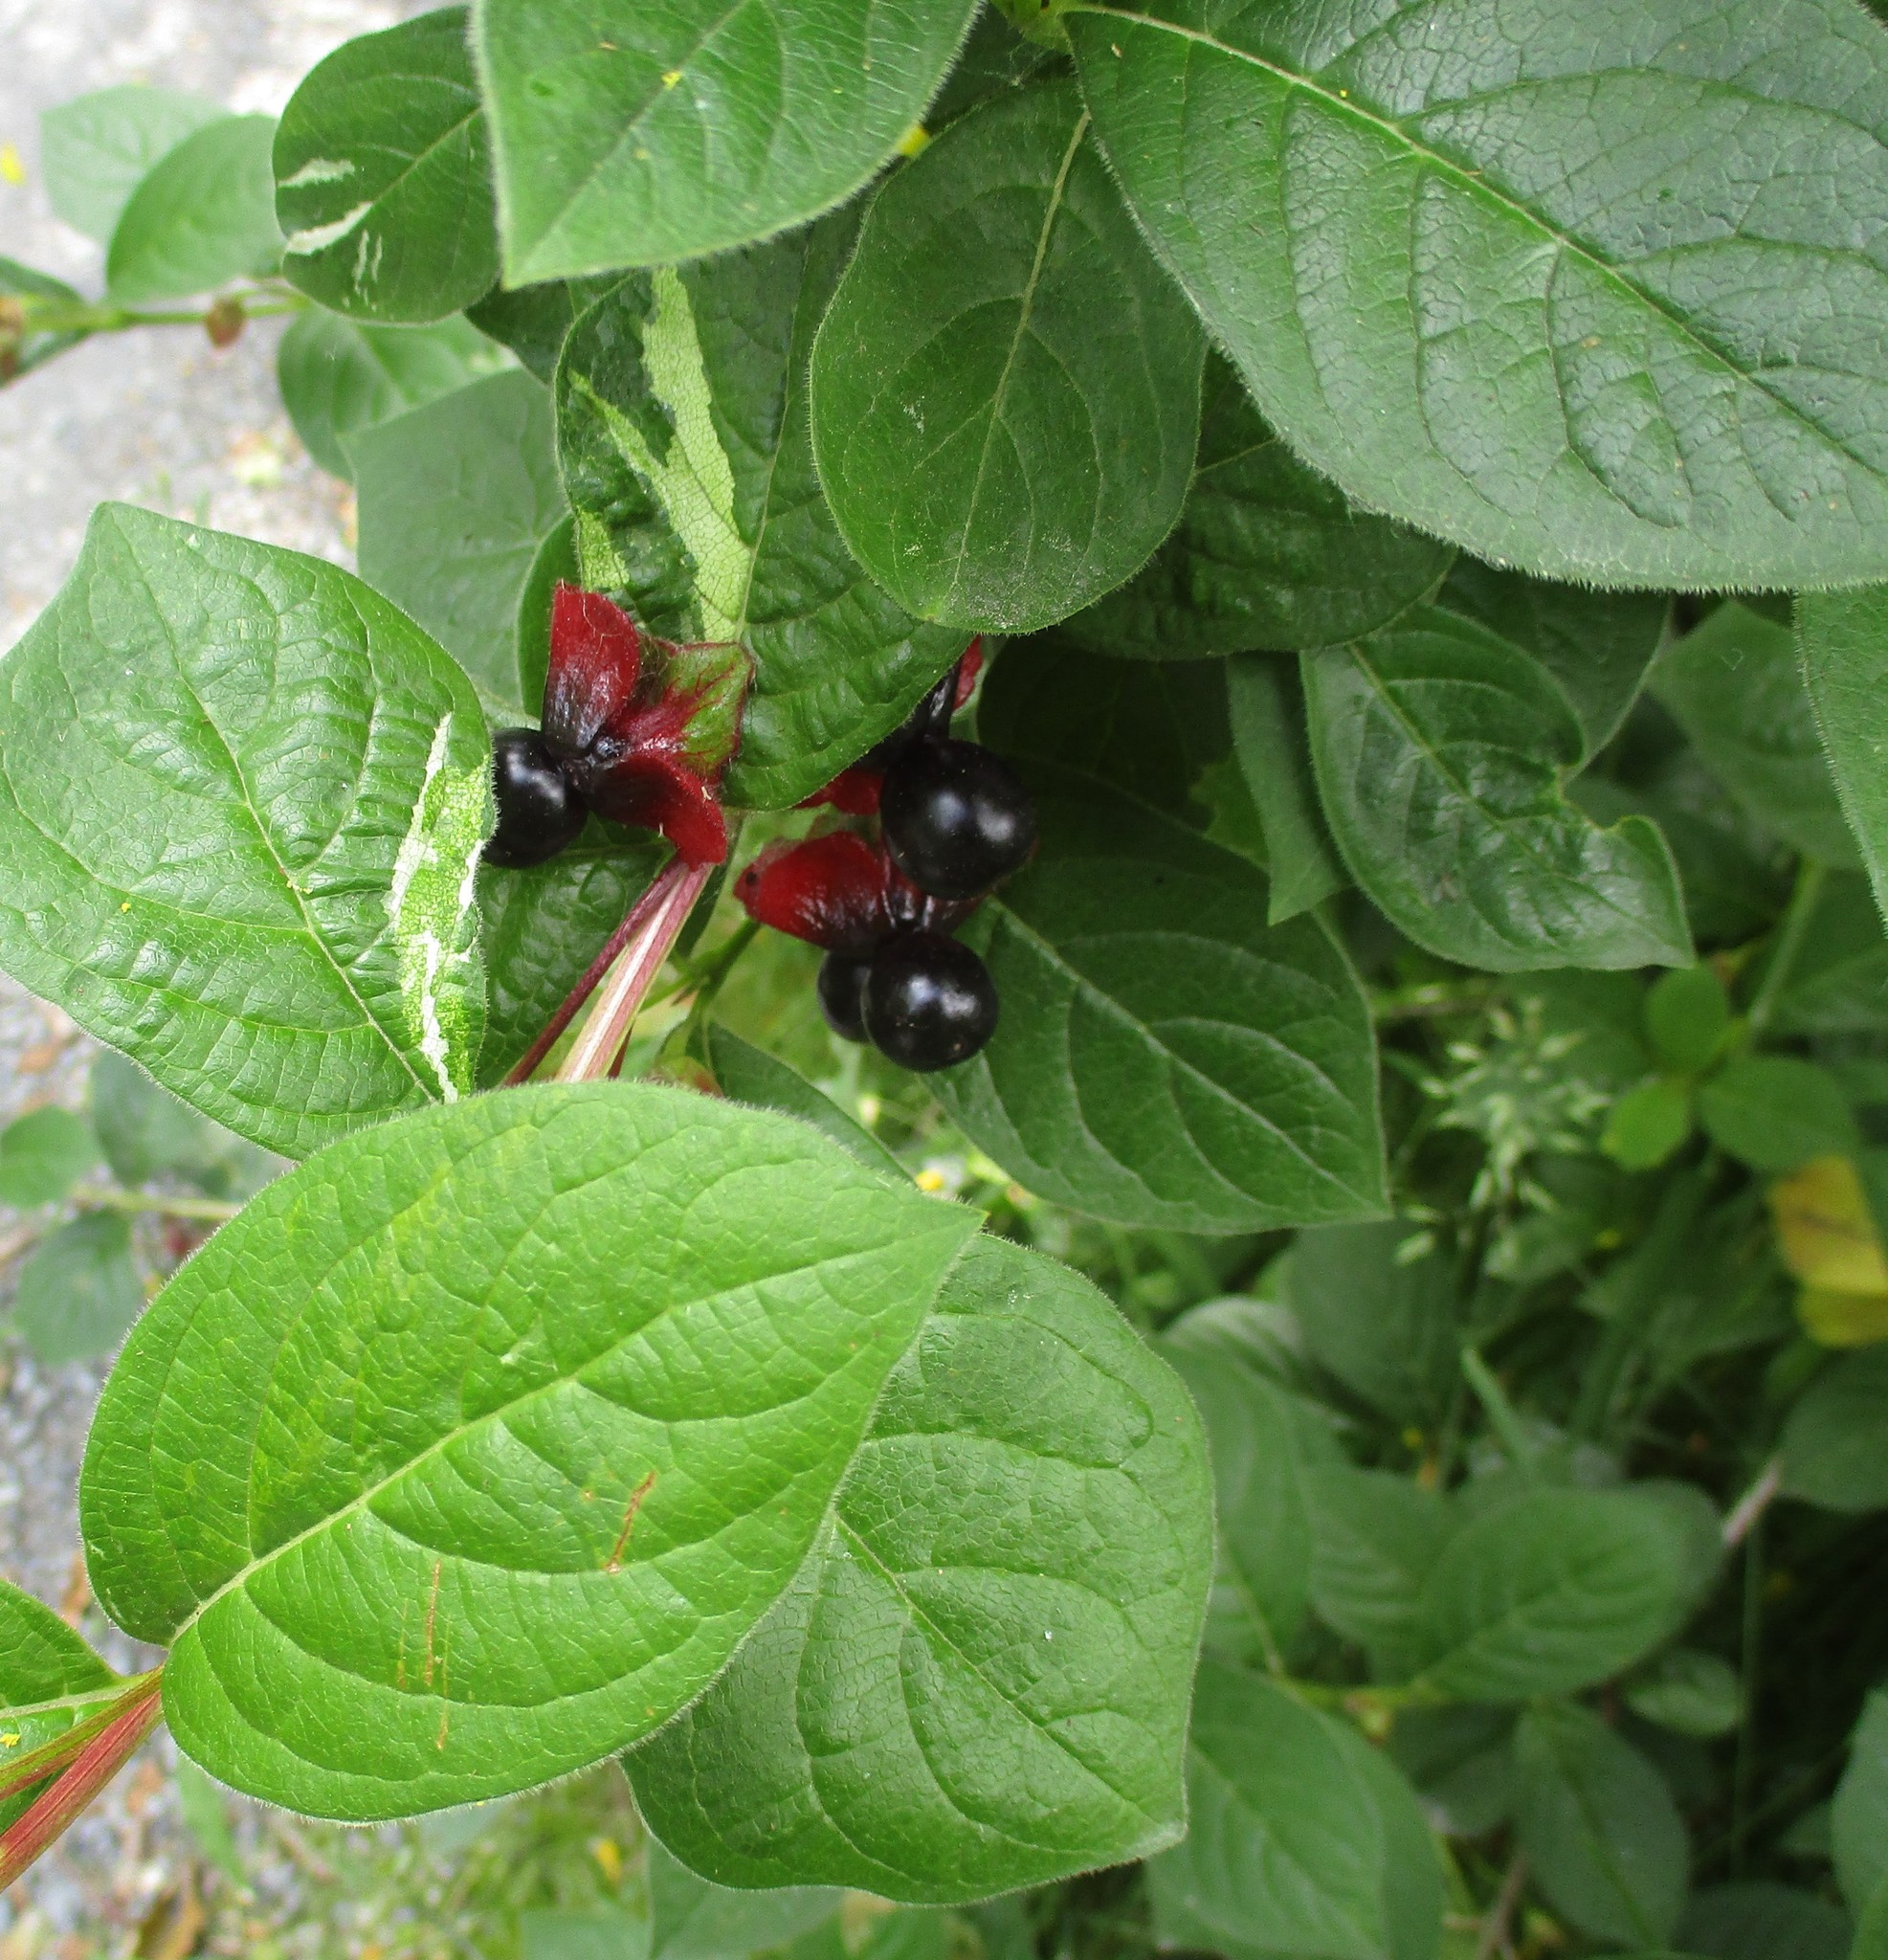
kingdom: Plantae
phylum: Tracheophyta
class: Magnoliopsida
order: Dipsacales
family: Caprifoliaceae
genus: Lonicera
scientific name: Lonicera involucrata
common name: Californian honeysuckle
